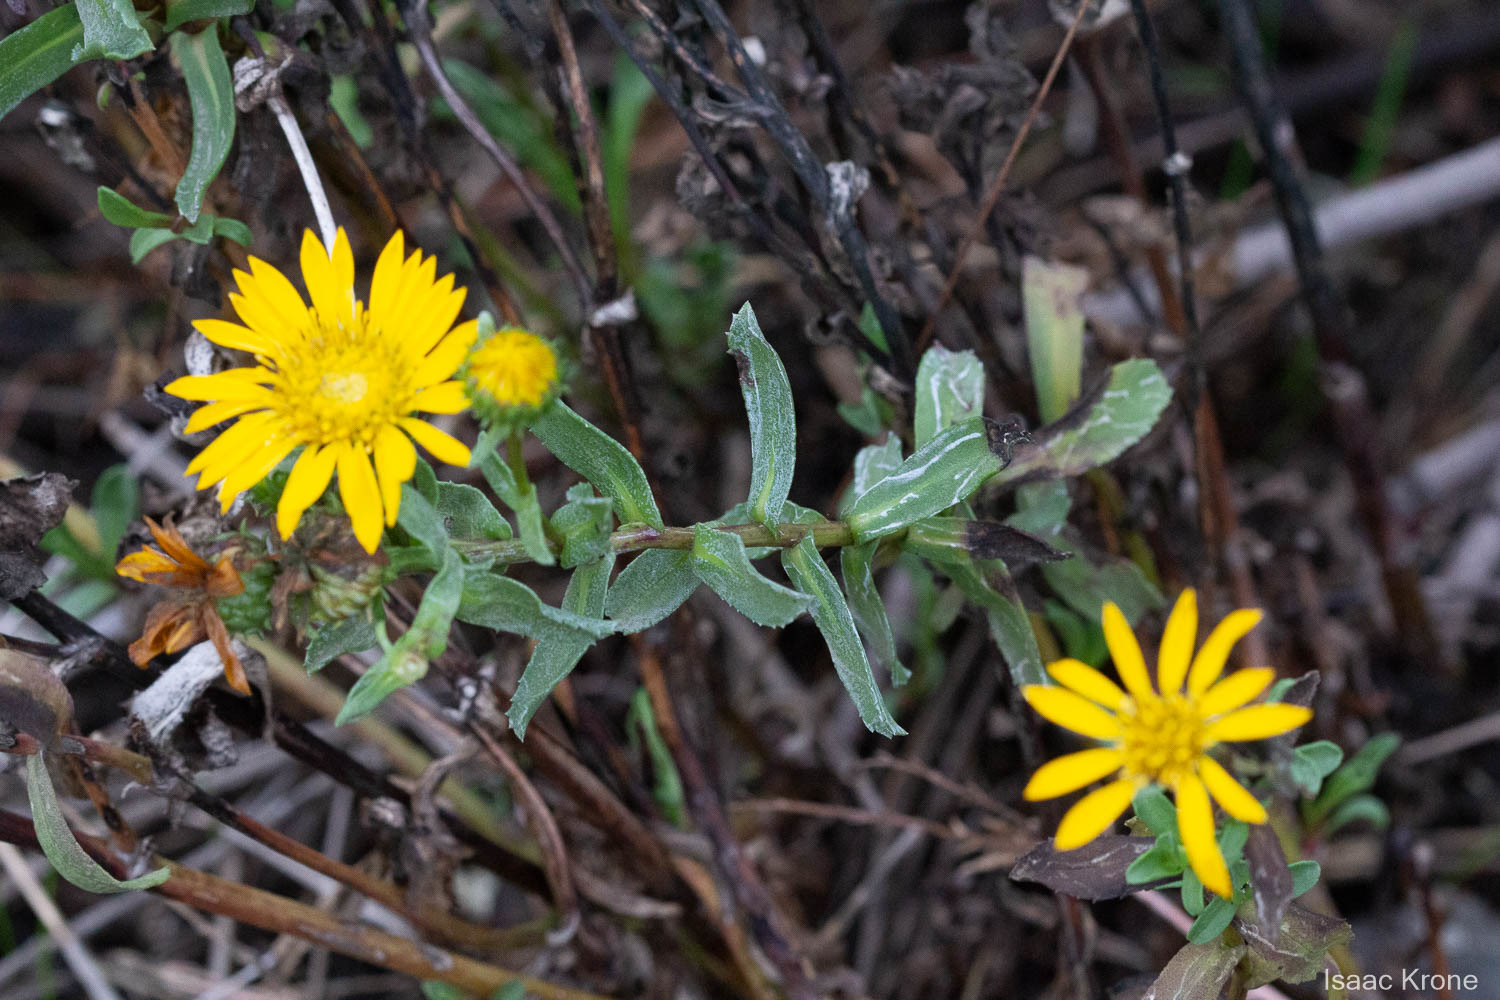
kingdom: Plantae
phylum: Tracheophyta
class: Magnoliopsida
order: Asterales
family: Asteraceae
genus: Grindelia
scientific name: Grindelia hirsutula
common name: Hairy gumweed
